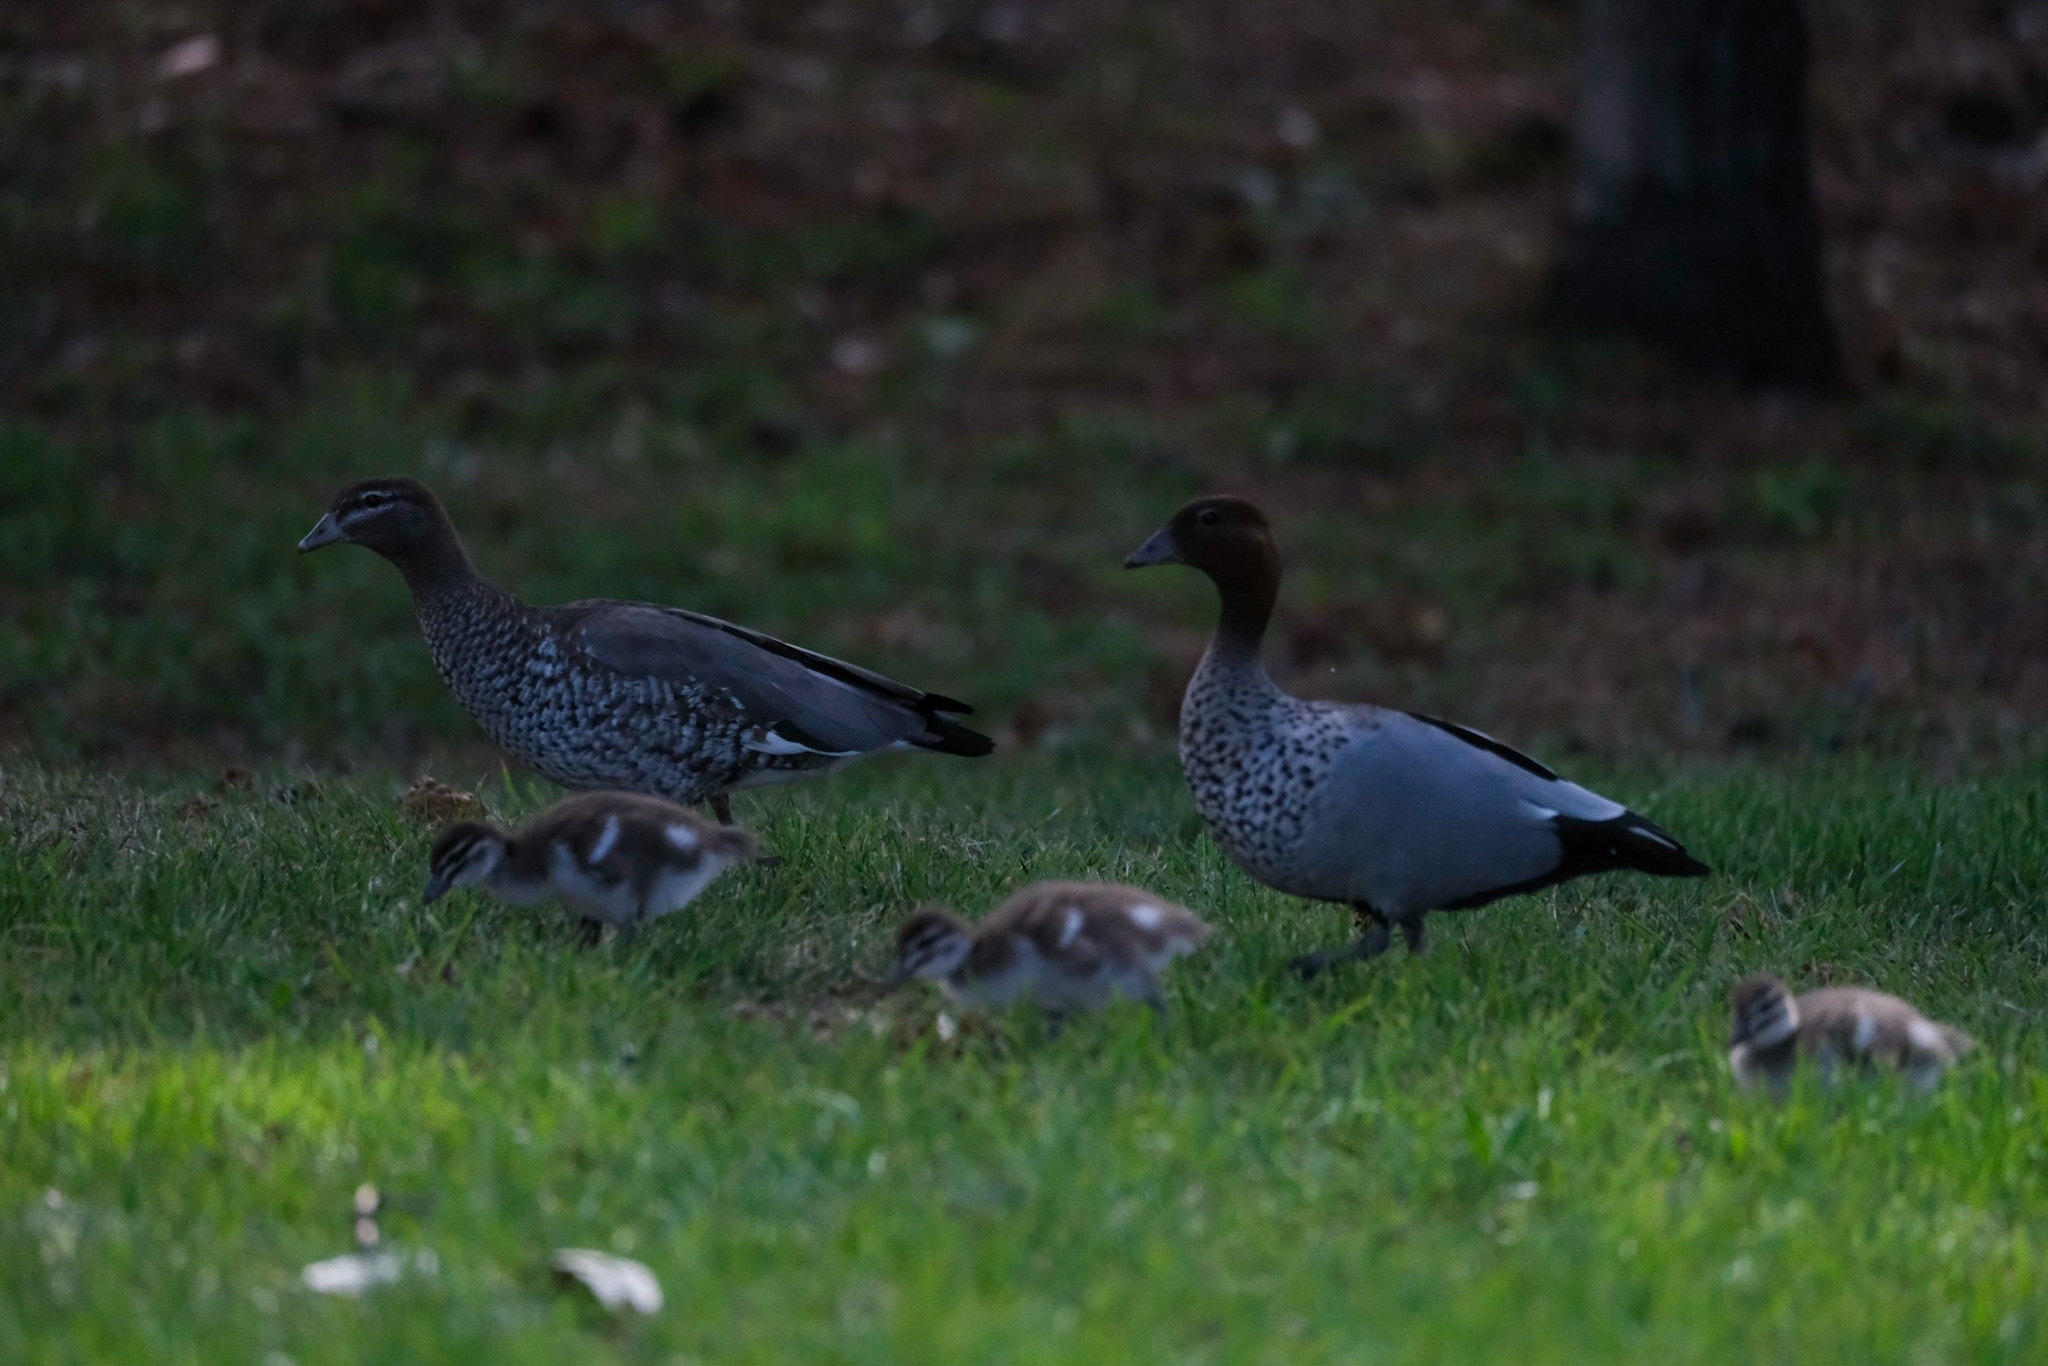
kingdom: Animalia
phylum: Chordata
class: Aves
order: Anseriformes
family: Anatidae
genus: Chenonetta
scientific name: Chenonetta jubata
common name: Maned duck
